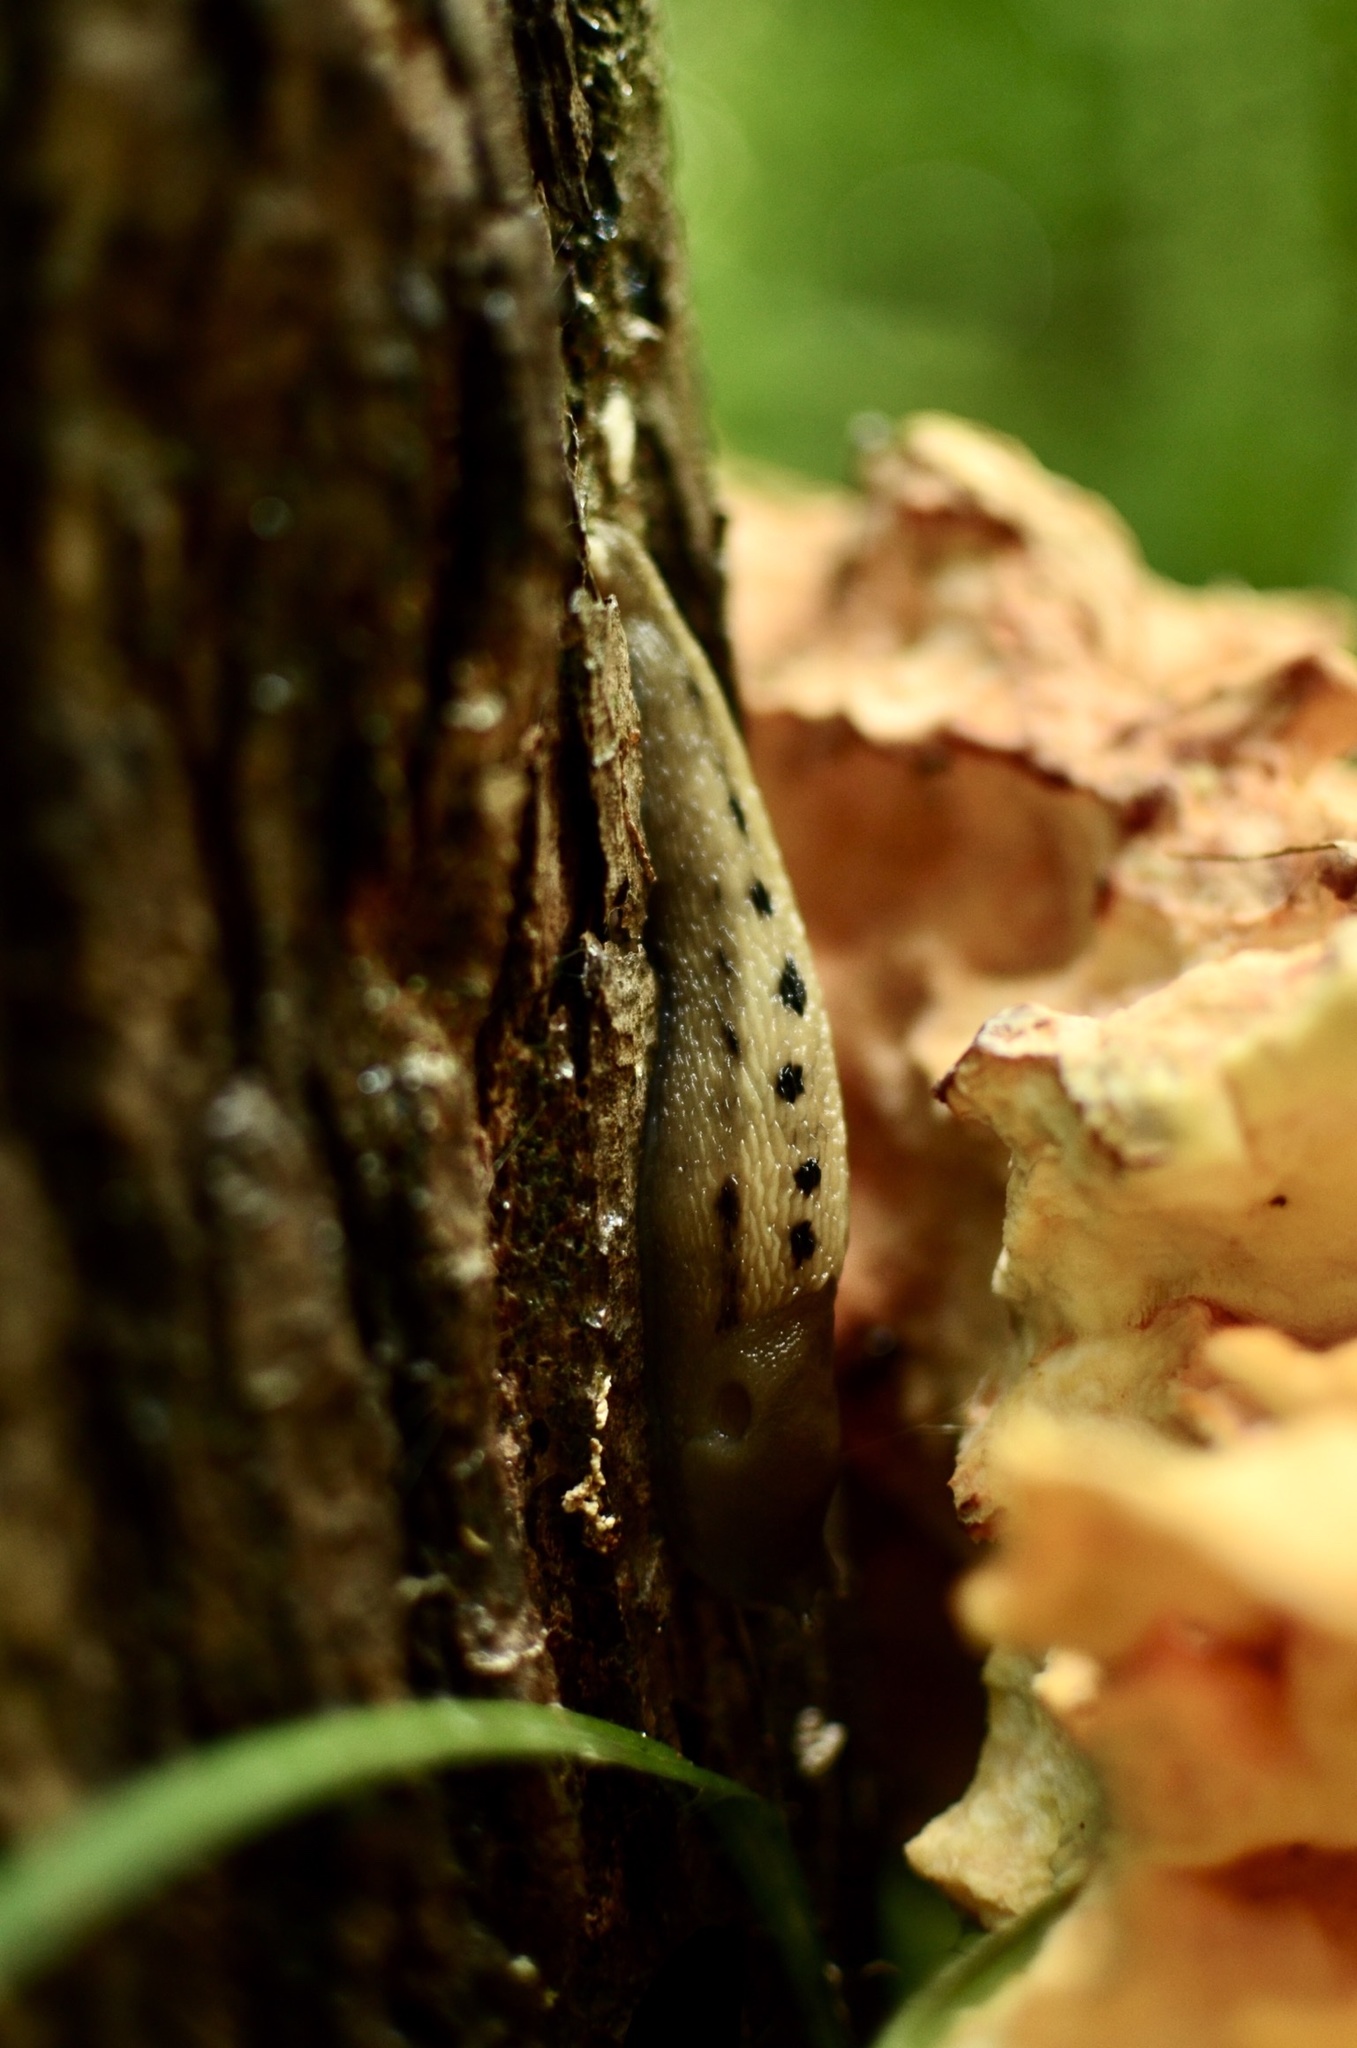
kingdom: Animalia
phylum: Mollusca
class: Gastropoda
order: Stylommatophora
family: Limacidae
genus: Limax
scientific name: Limax cinereoniger
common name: Ash-black slug
